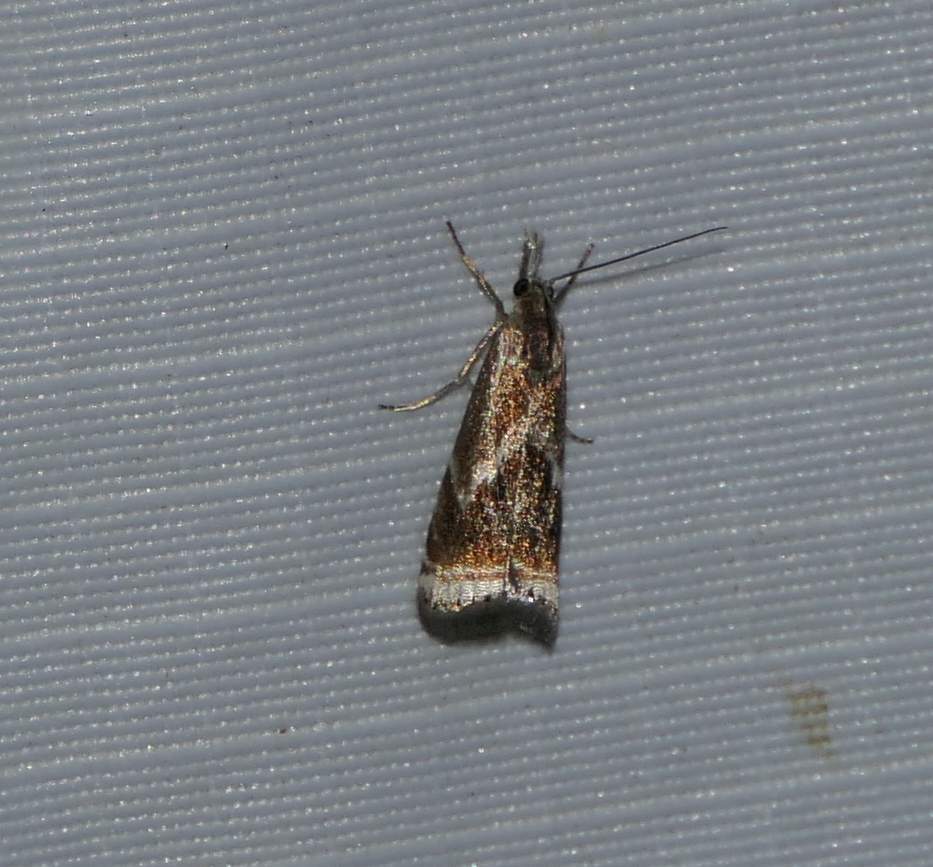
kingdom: Animalia
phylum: Arthropoda
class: Insecta
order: Lepidoptera
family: Crambidae
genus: Microcrambus
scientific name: Microcrambus elegans
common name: Elegant grass-veneer
